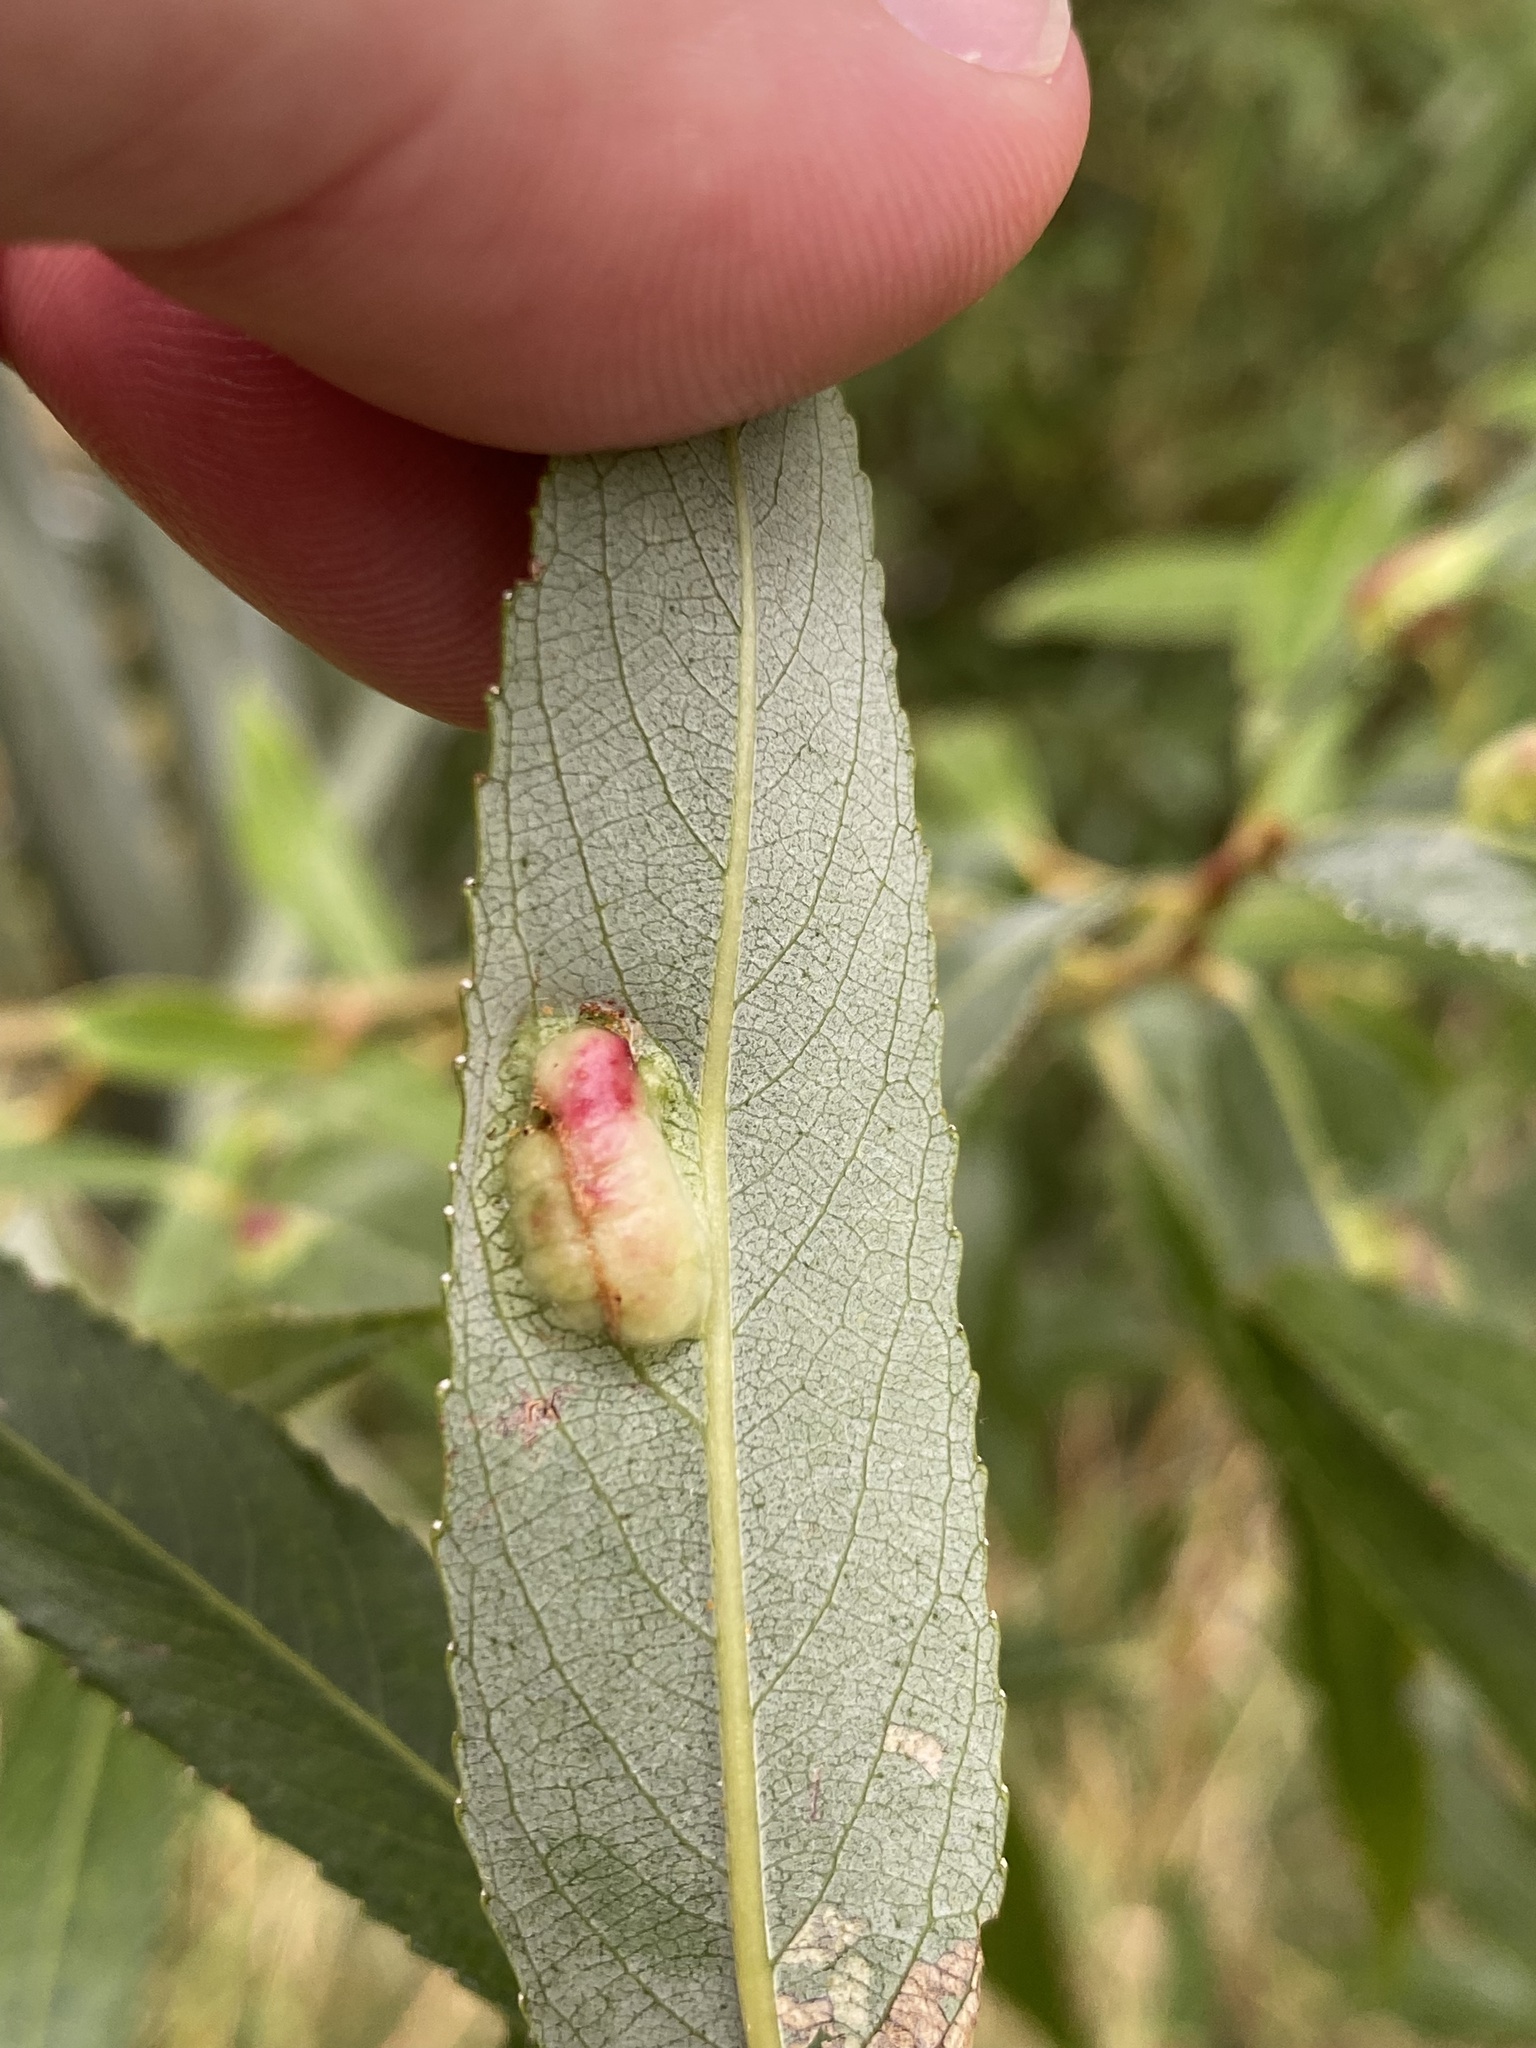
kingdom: Animalia
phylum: Arthropoda
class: Insecta
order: Hymenoptera
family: Tenthredinidae
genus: Pontania
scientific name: Pontania proxima
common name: Common sawfly
